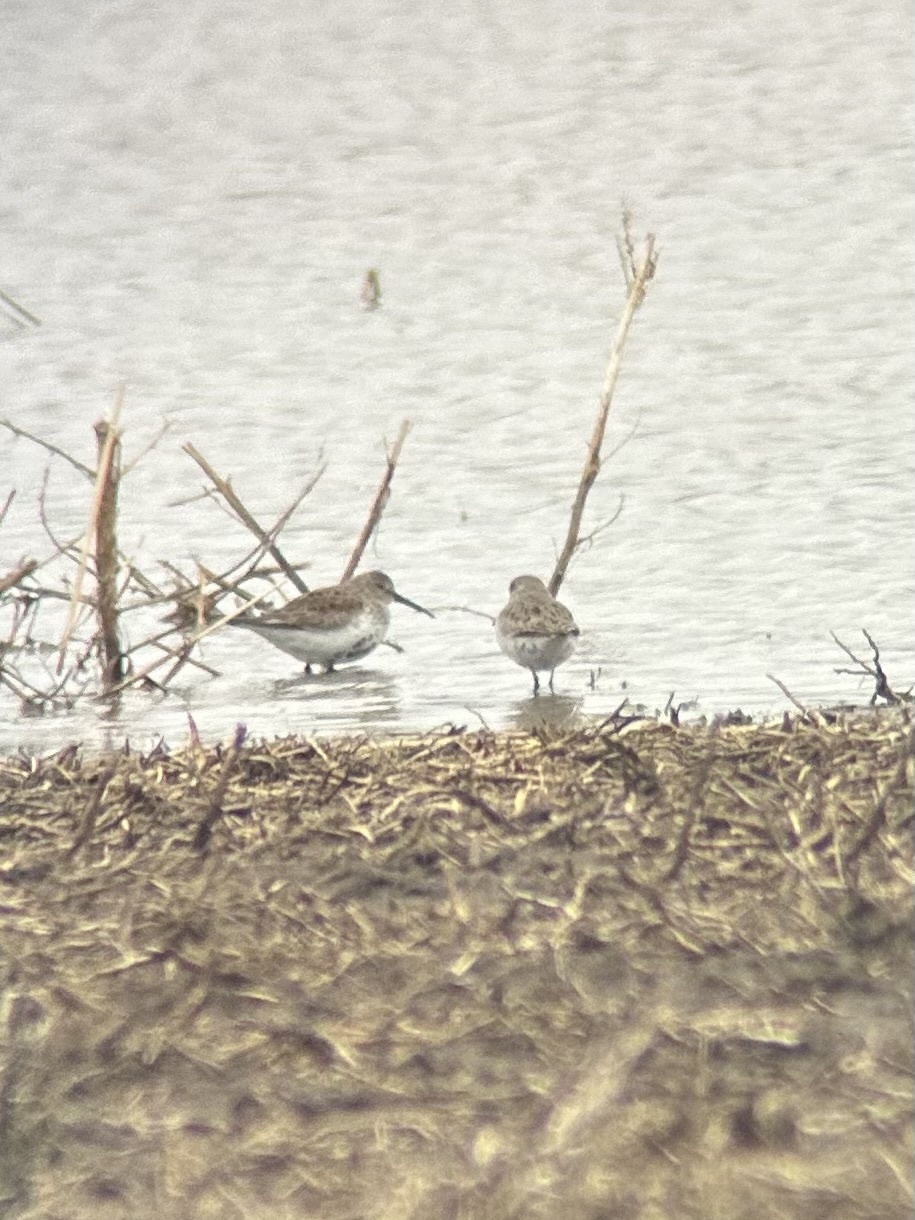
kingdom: Animalia
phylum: Chordata
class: Aves
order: Charadriiformes
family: Scolopacidae
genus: Calidris
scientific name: Calidris alpina
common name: Dunlin
